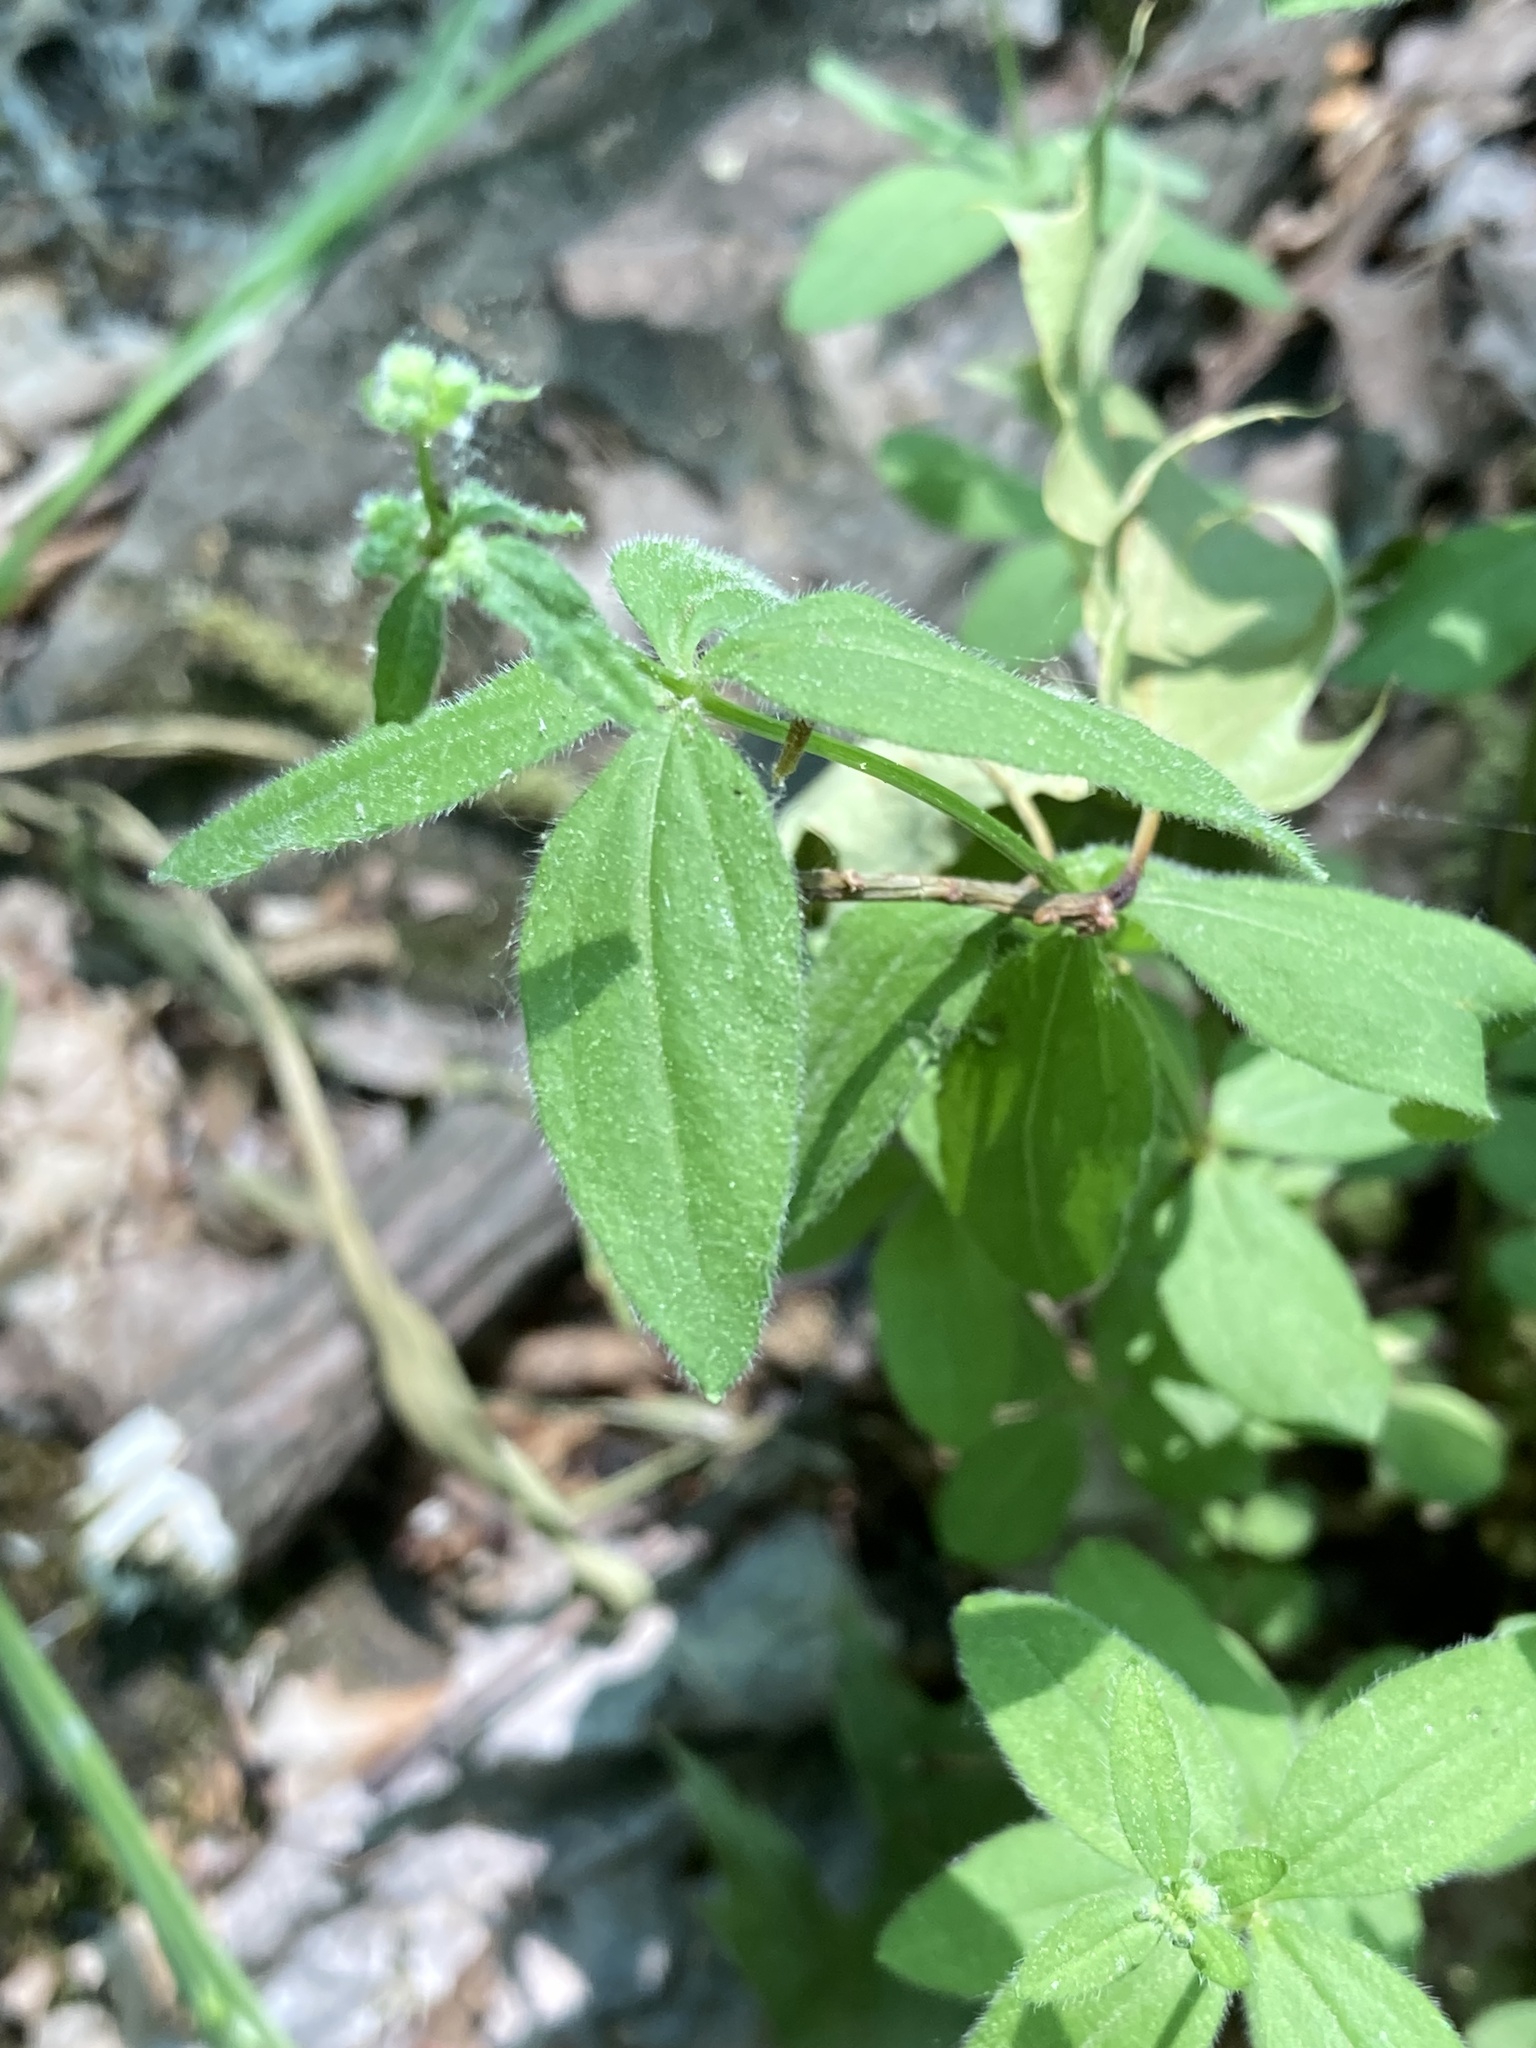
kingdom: Plantae
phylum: Tracheophyta
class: Magnoliopsida
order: Gentianales
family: Rubiaceae
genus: Galium
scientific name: Galium circaezans
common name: Forest bedstraw
